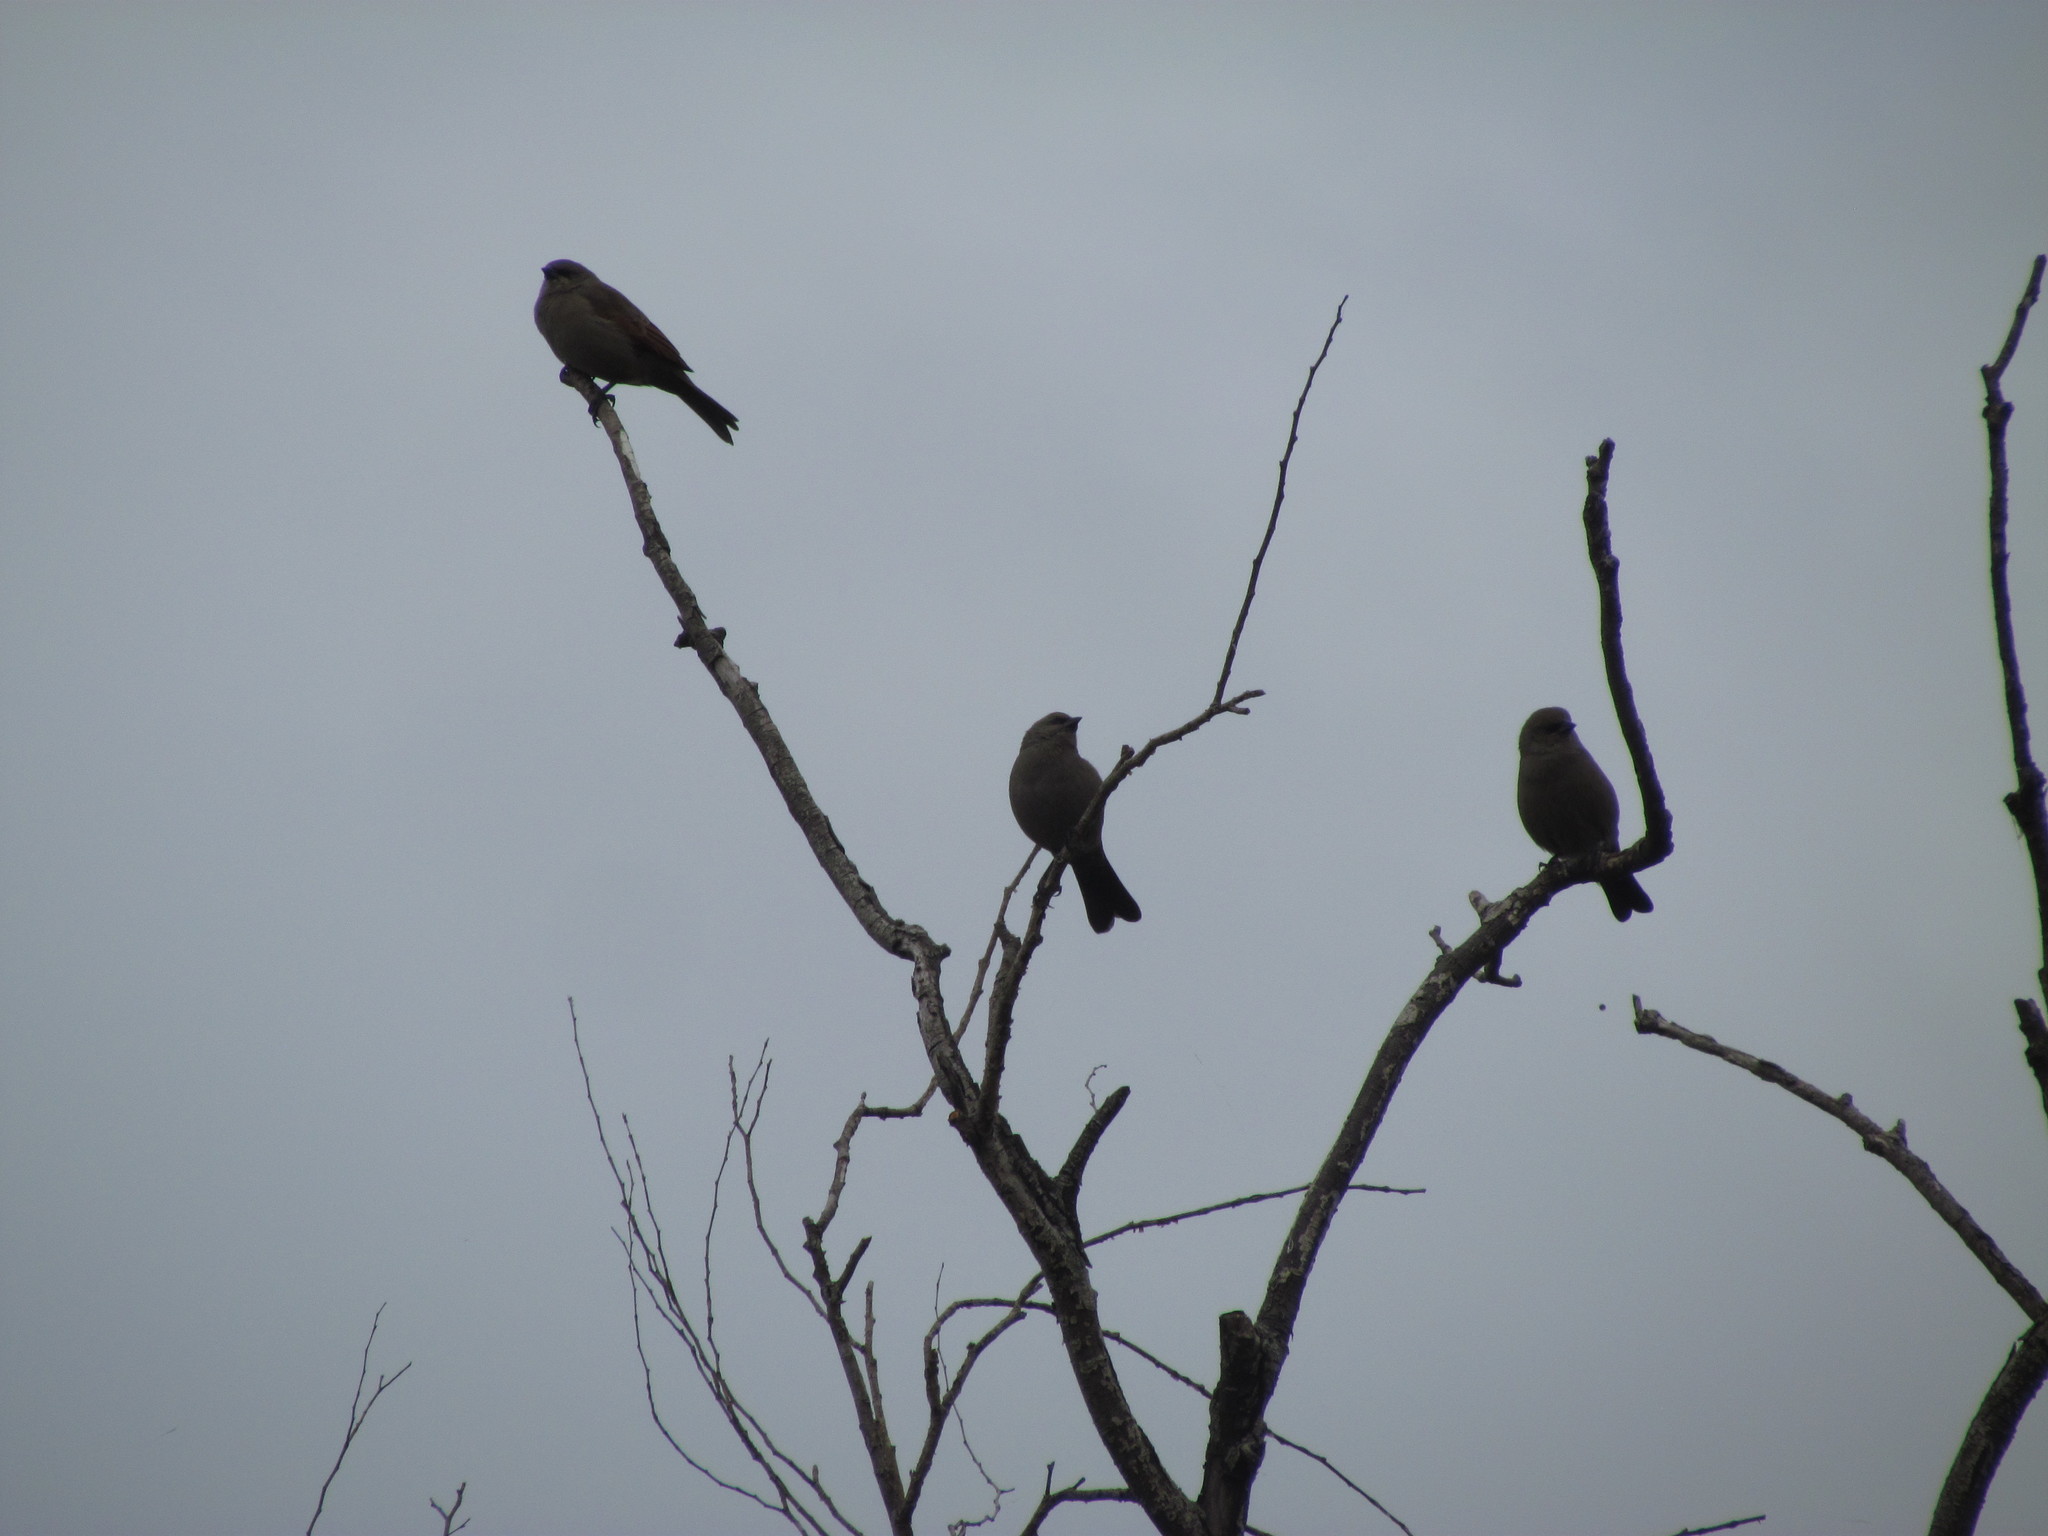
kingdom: Animalia
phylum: Chordata
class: Aves
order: Passeriformes
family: Icteridae
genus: Agelaioides
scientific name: Agelaioides badius
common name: Baywing
